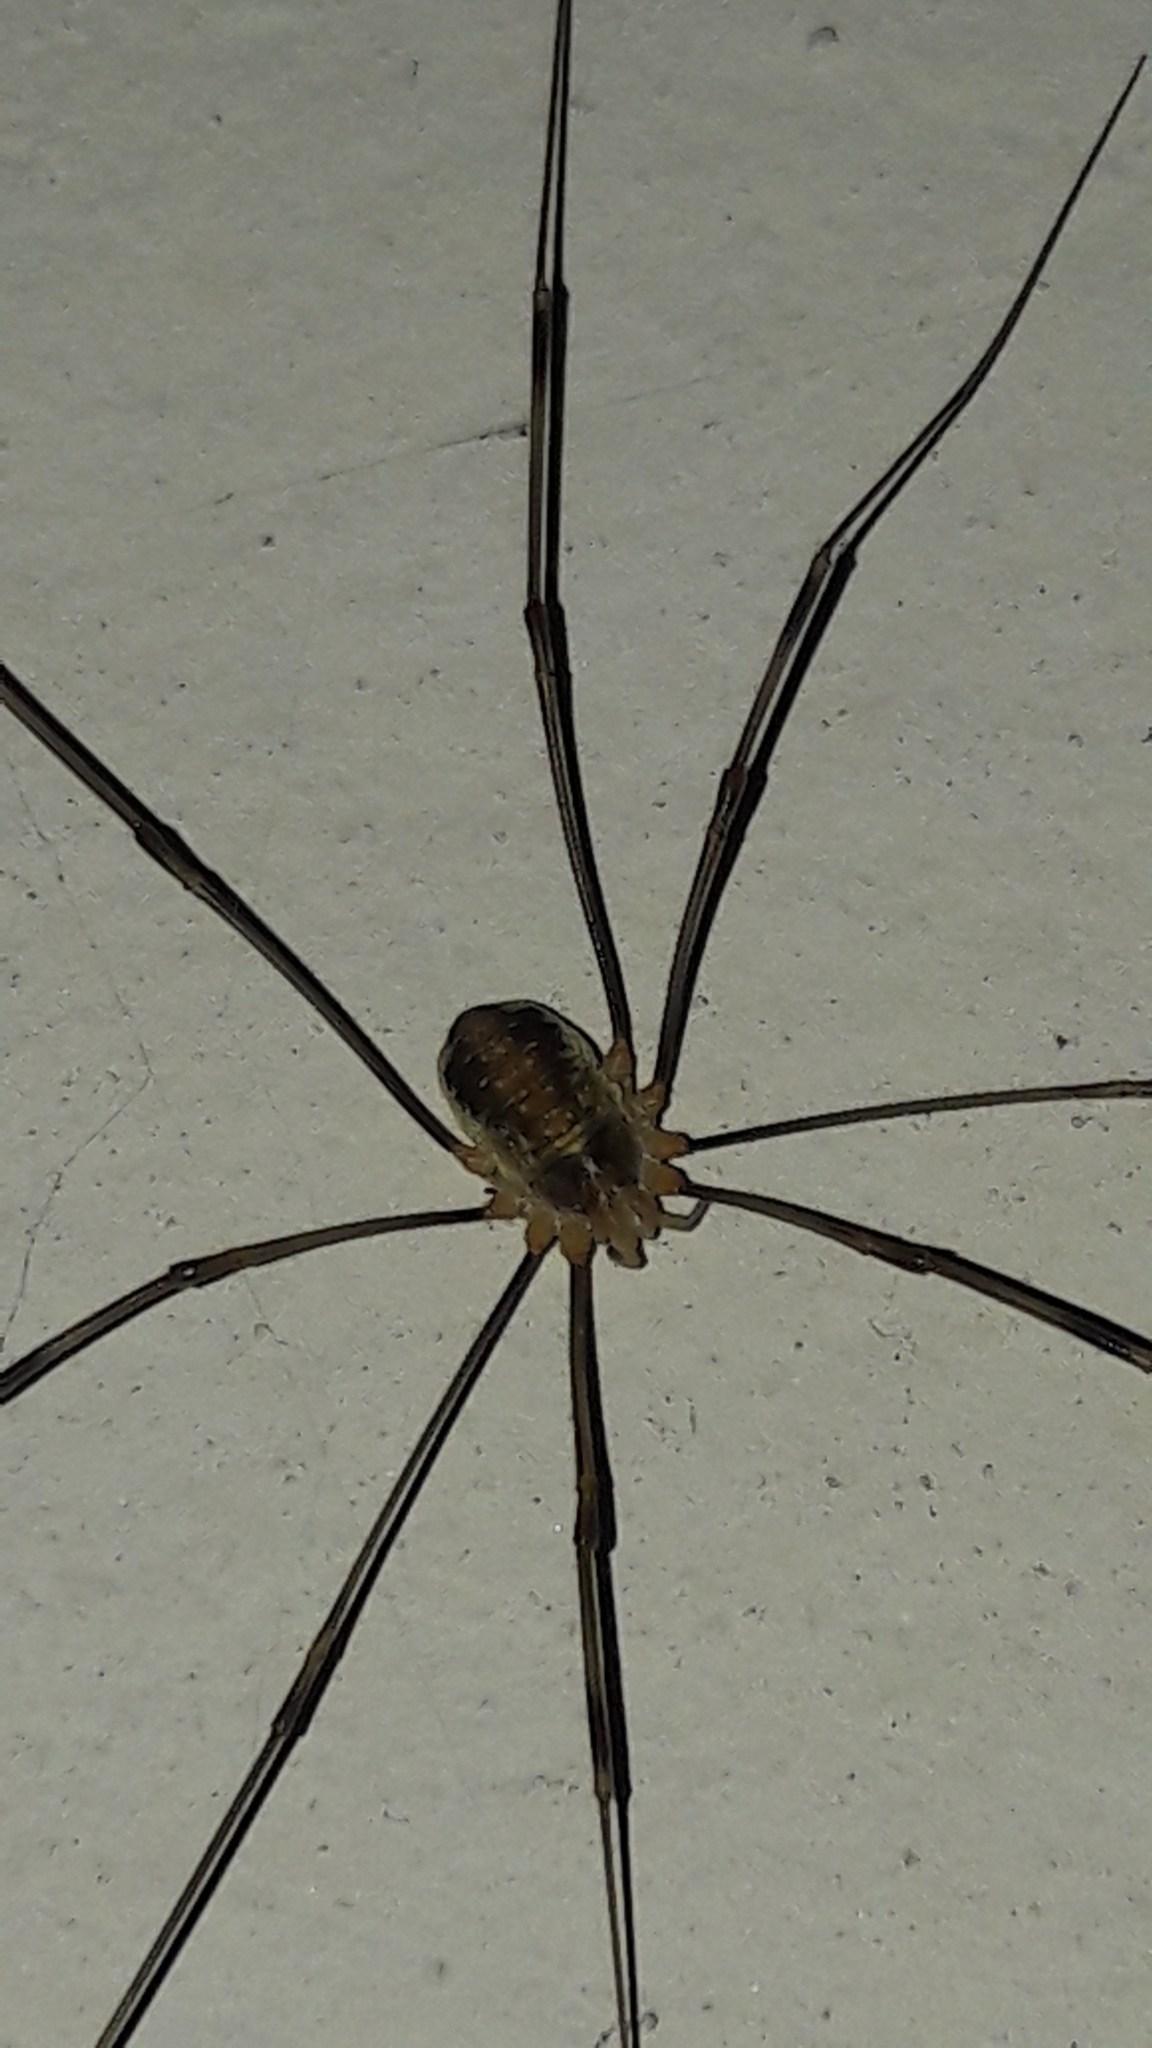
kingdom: Animalia
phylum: Arthropoda
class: Arachnida
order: Opiliones
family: Phalangiidae
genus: Opilio
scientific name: Opilio canestrinii
